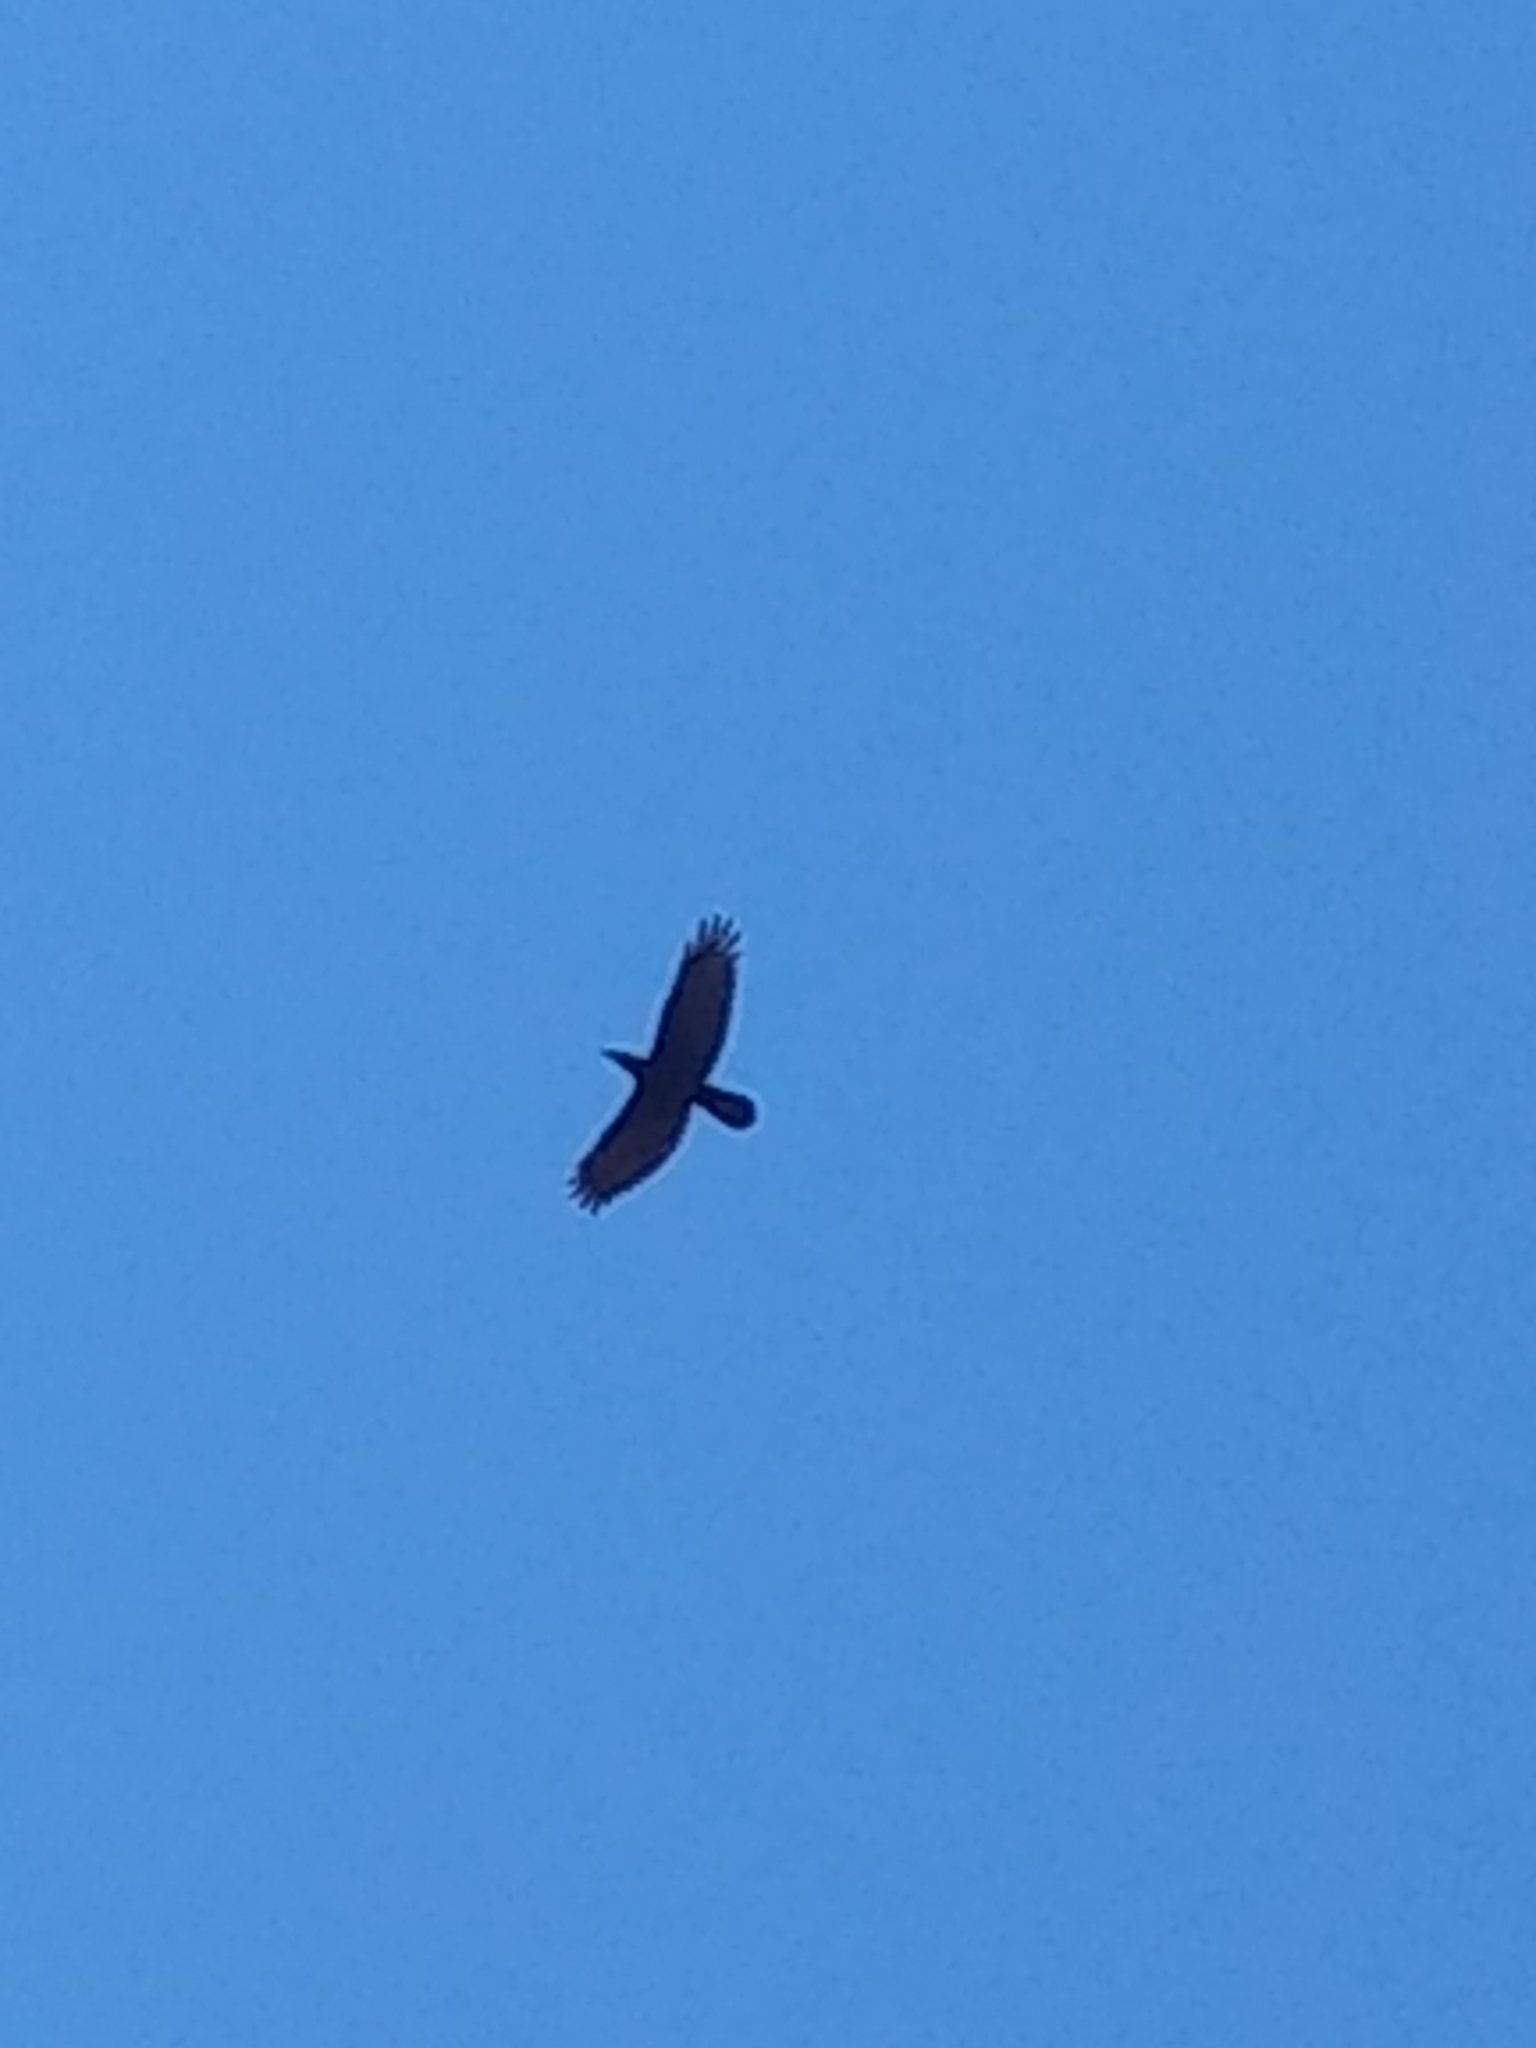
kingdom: Animalia
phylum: Chordata
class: Aves
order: Passeriformes
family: Corvidae
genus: Corvus
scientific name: Corvus corax
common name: Common raven
